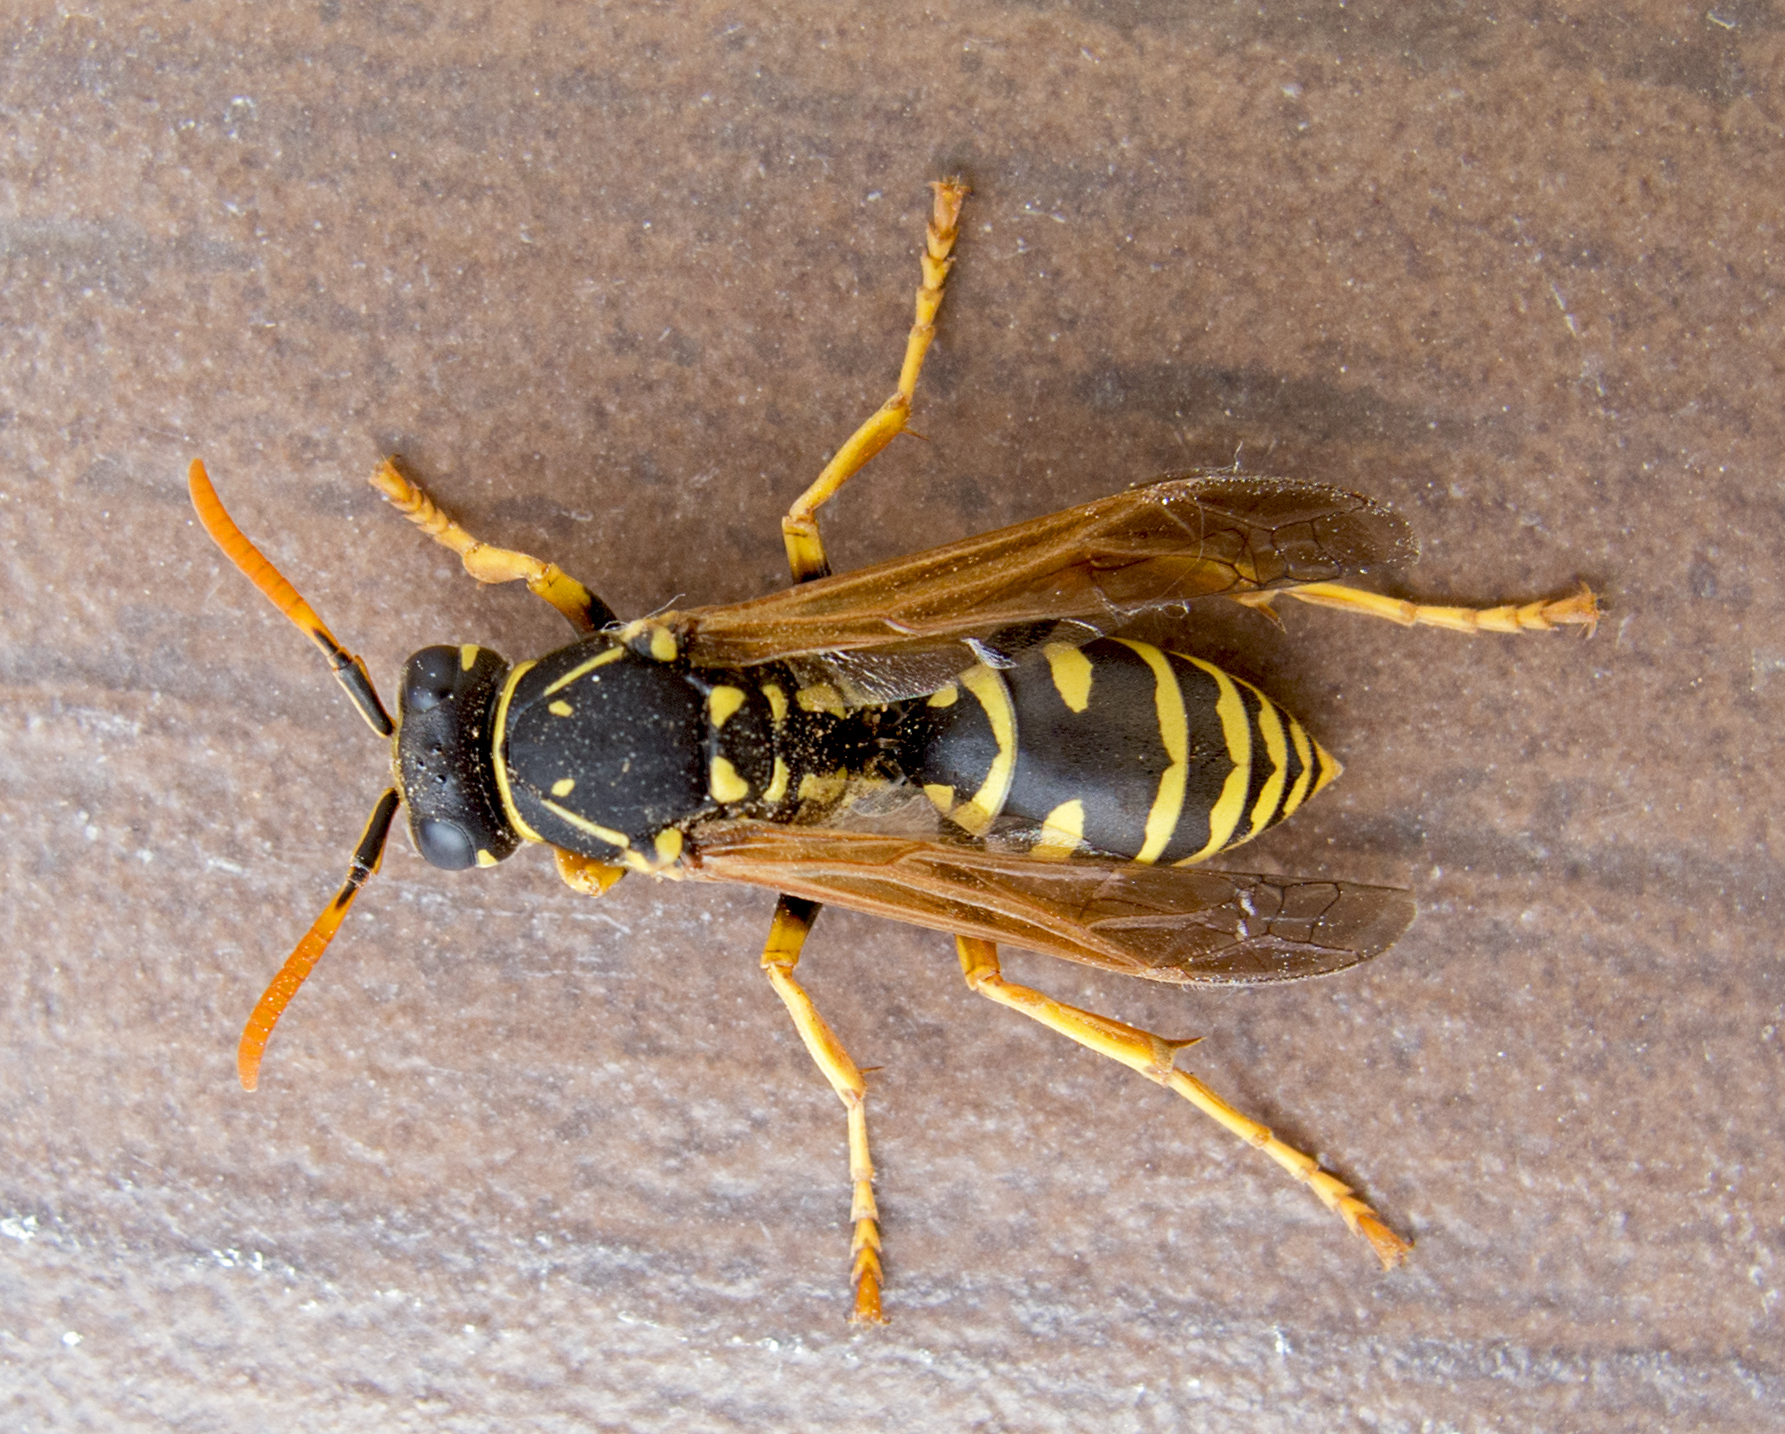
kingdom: Animalia
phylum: Arthropoda
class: Insecta
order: Hymenoptera
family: Eumenidae
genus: Polistes
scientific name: Polistes dominula
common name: Paper wasp
